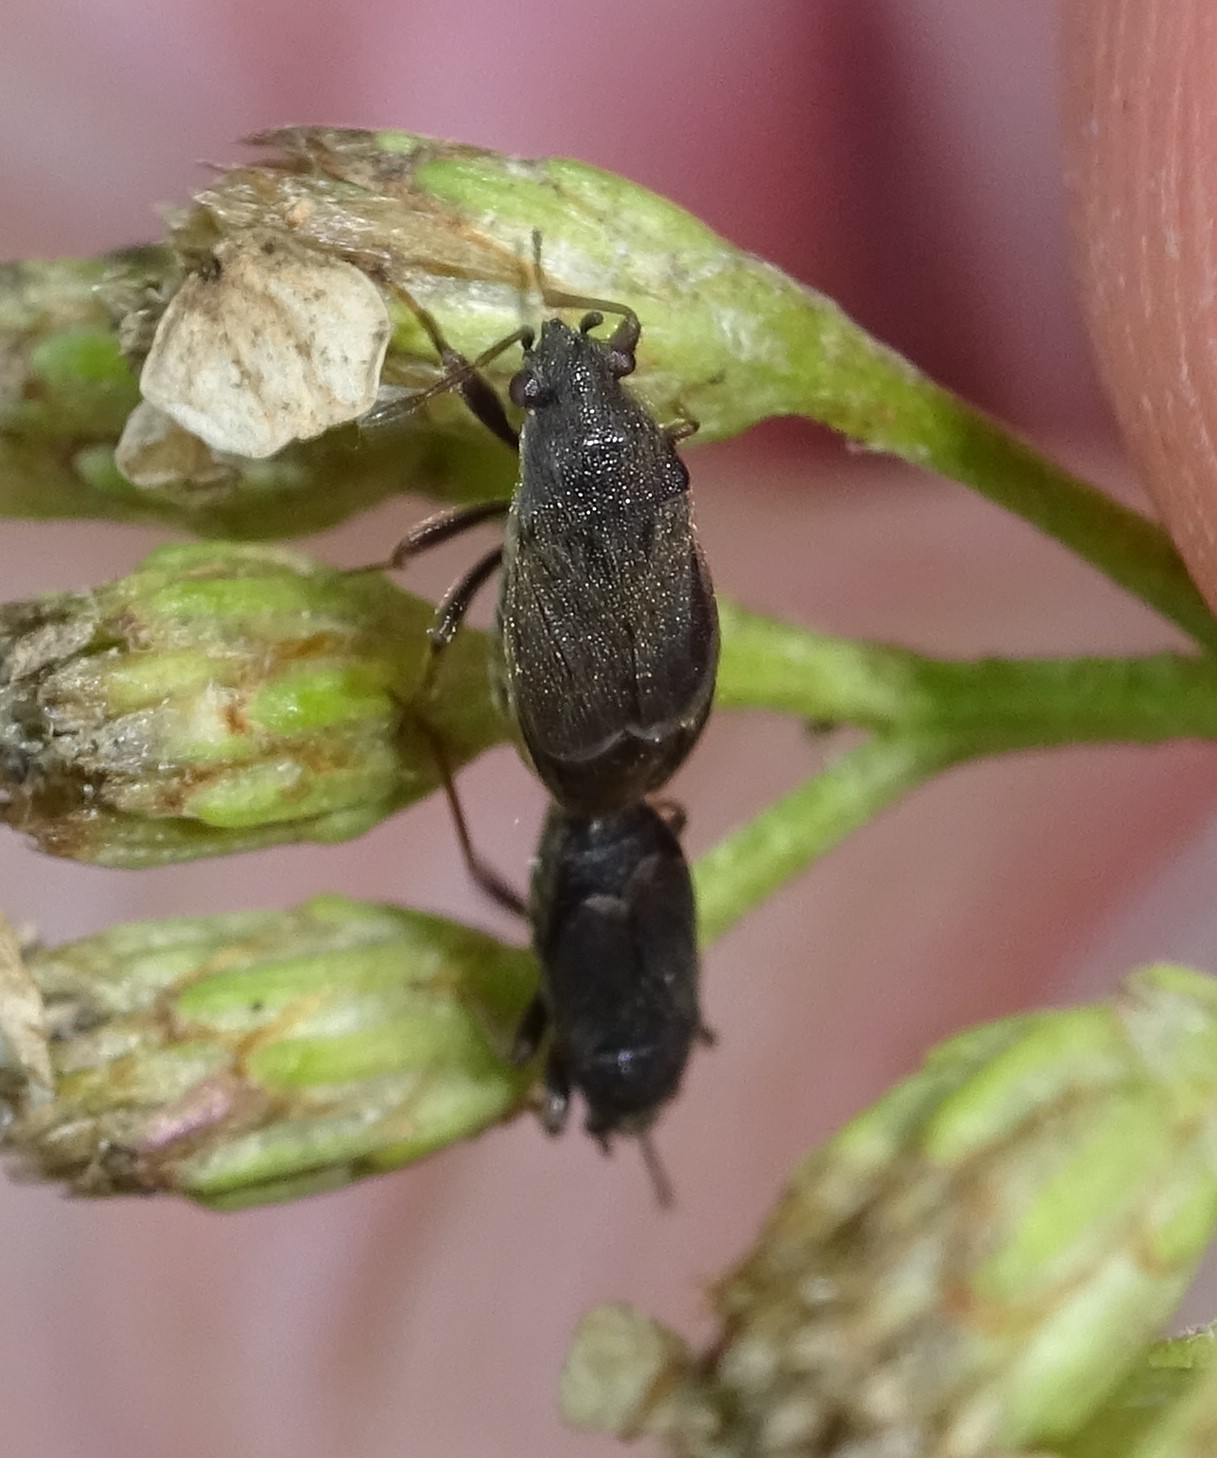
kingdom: Animalia
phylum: Arthropoda
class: Insecta
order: Hemiptera
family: Rhyparochromidae
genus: Stygnocoris
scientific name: Stygnocoris rusticus
